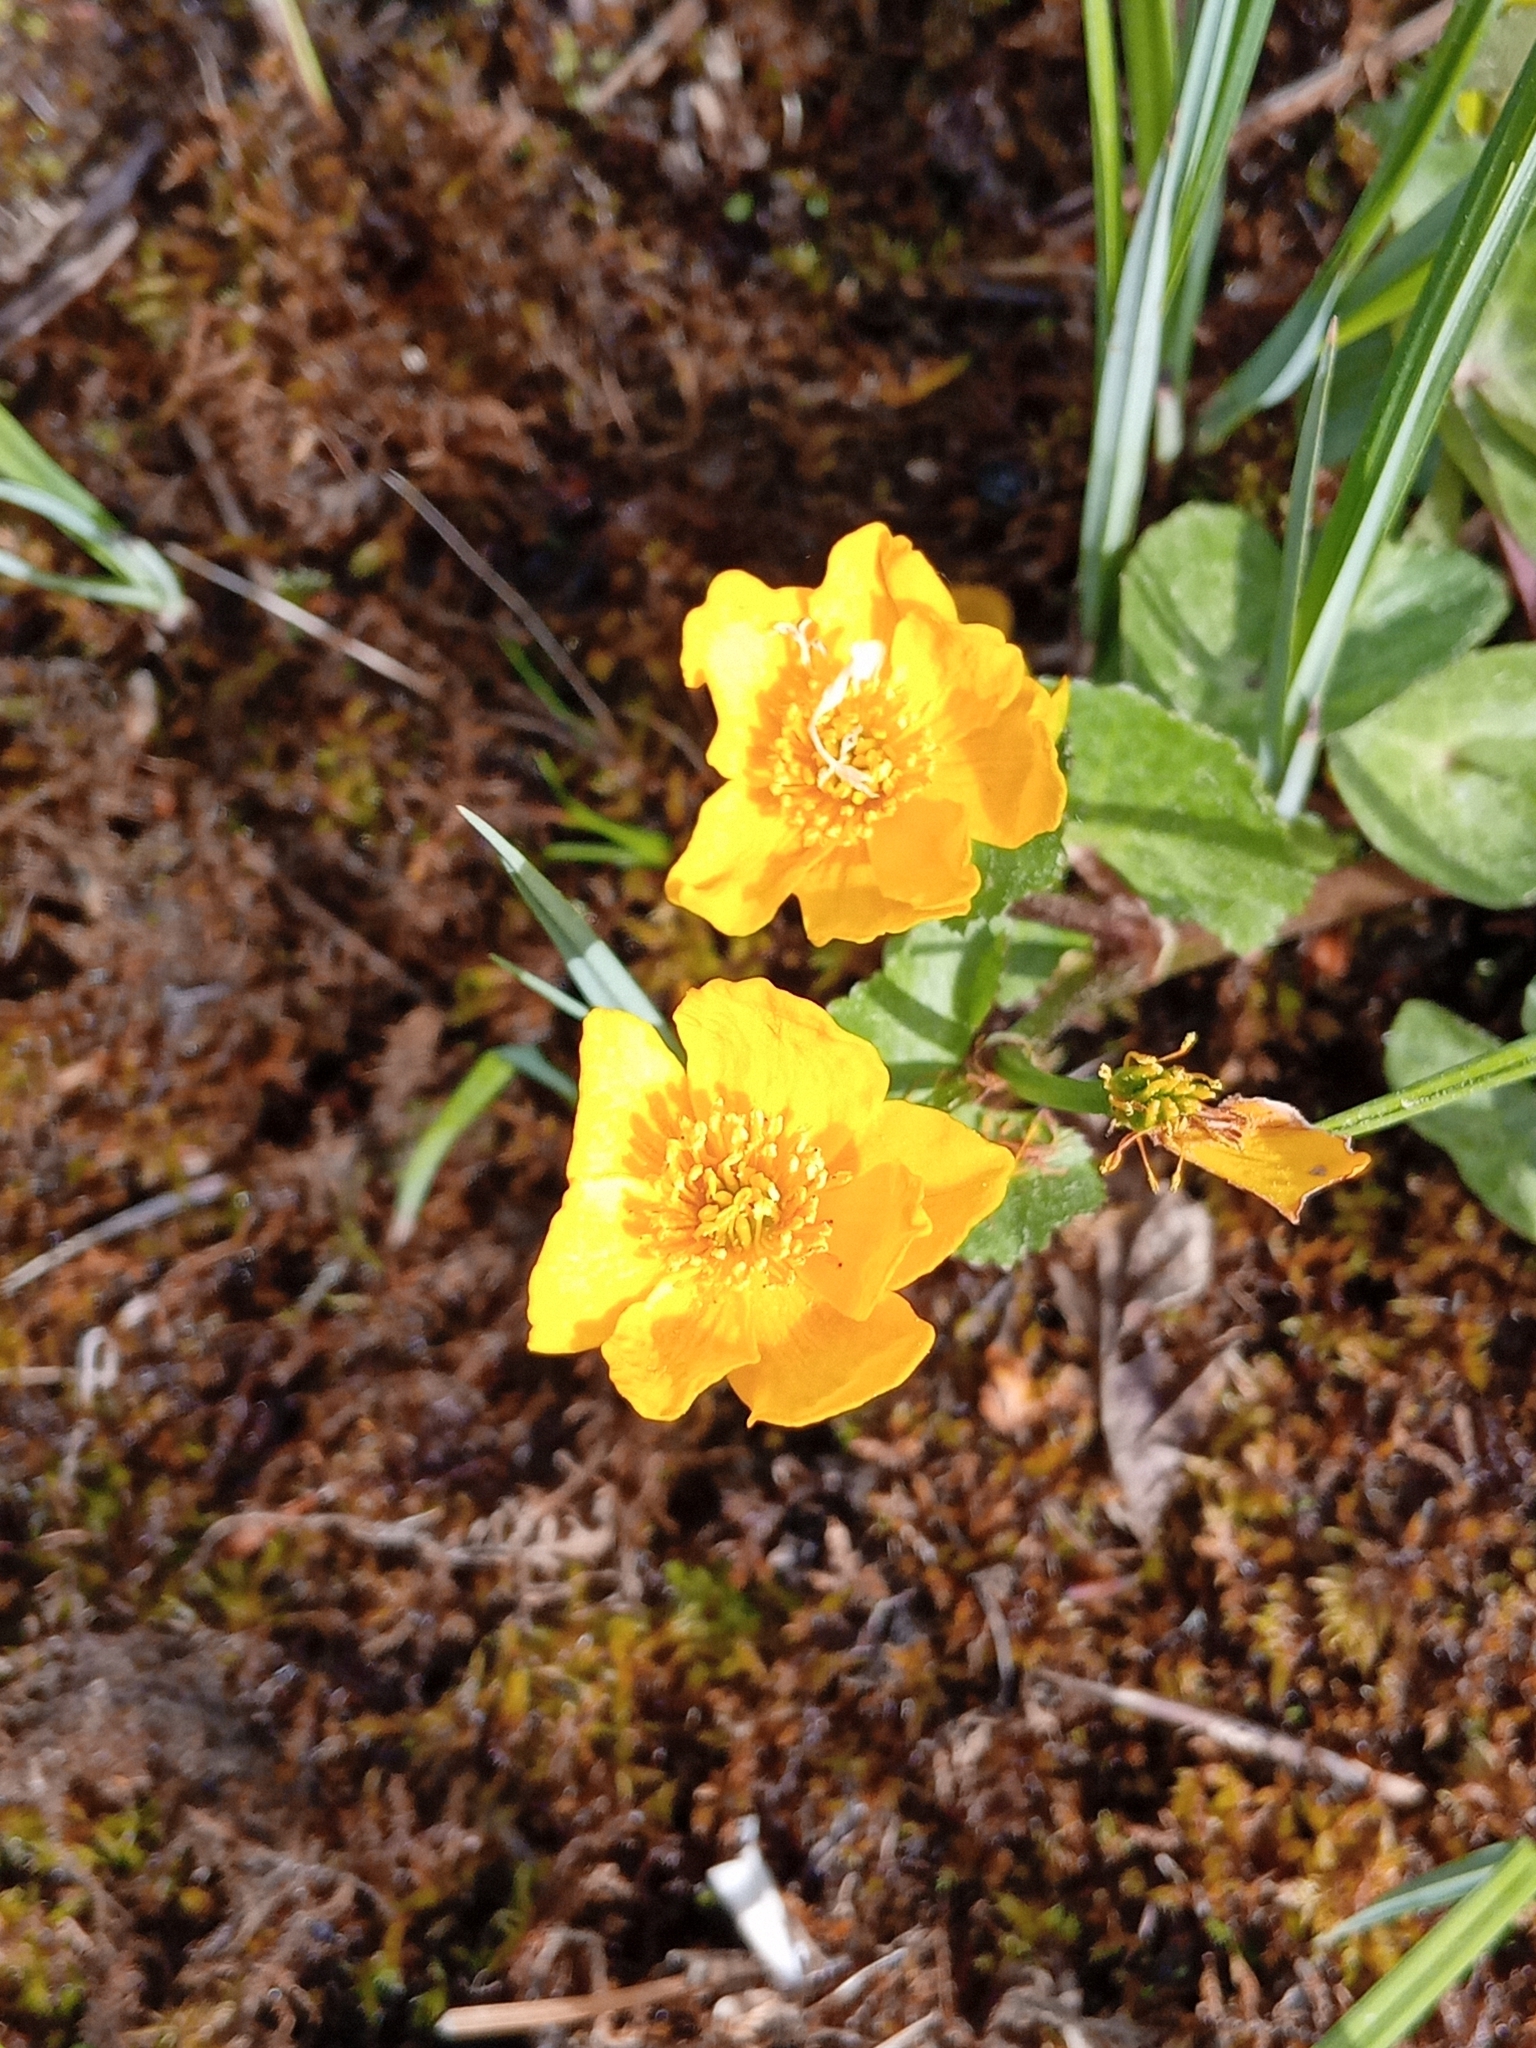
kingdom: Plantae
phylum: Tracheophyta
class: Magnoliopsida
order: Ranunculales
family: Ranunculaceae
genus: Caltha
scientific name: Caltha palustris
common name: Marsh marigold
